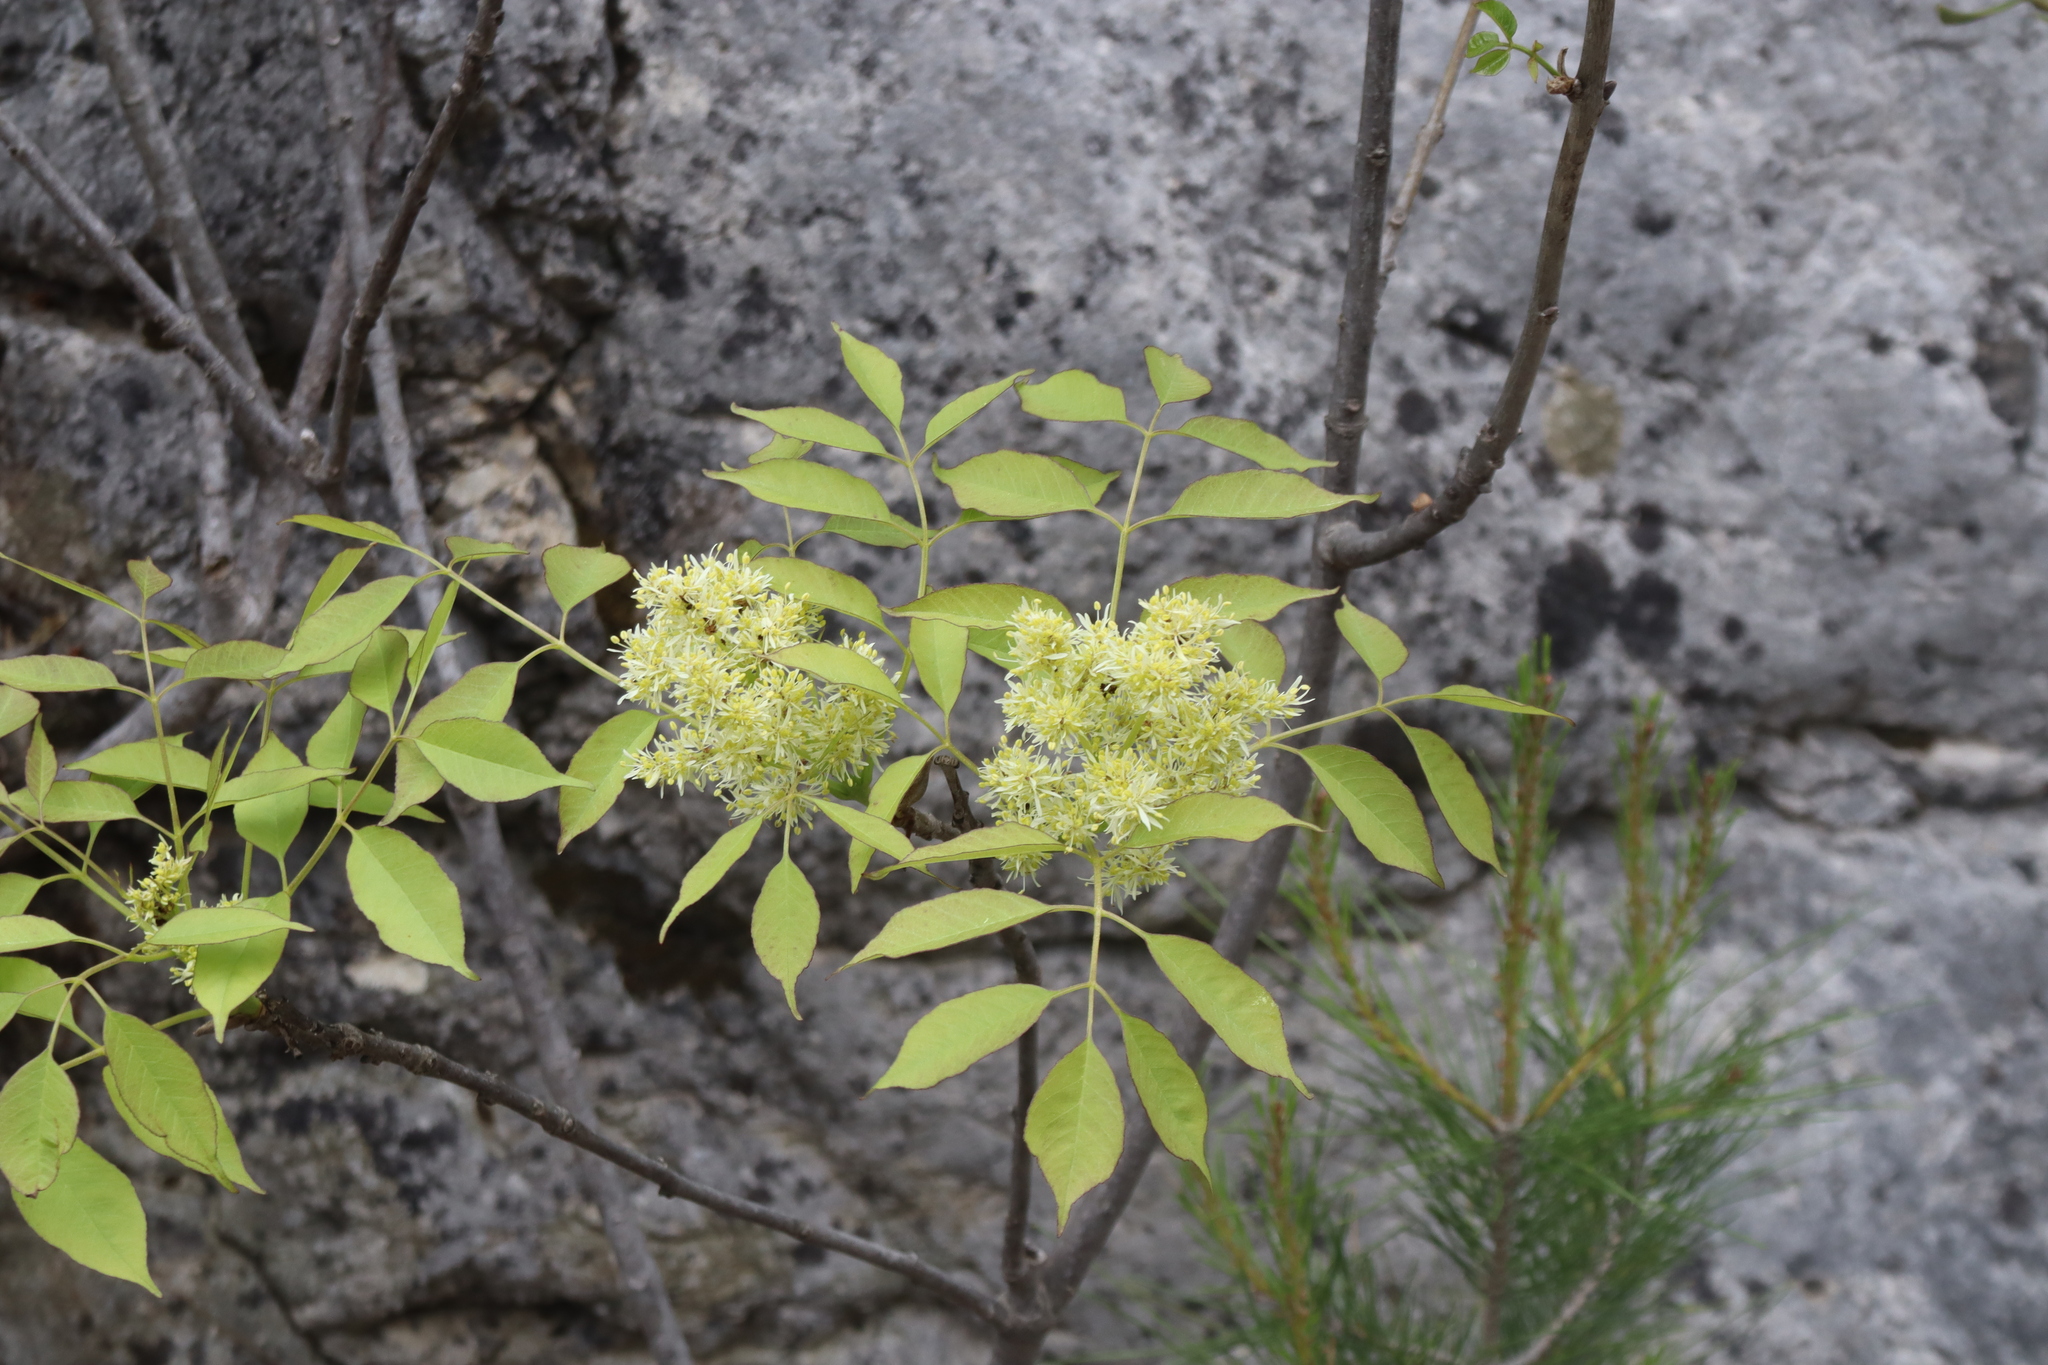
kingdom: Plantae
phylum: Tracheophyta
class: Magnoliopsida
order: Lamiales
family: Oleaceae
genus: Fraxinus
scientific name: Fraxinus ornus
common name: Manna ash
